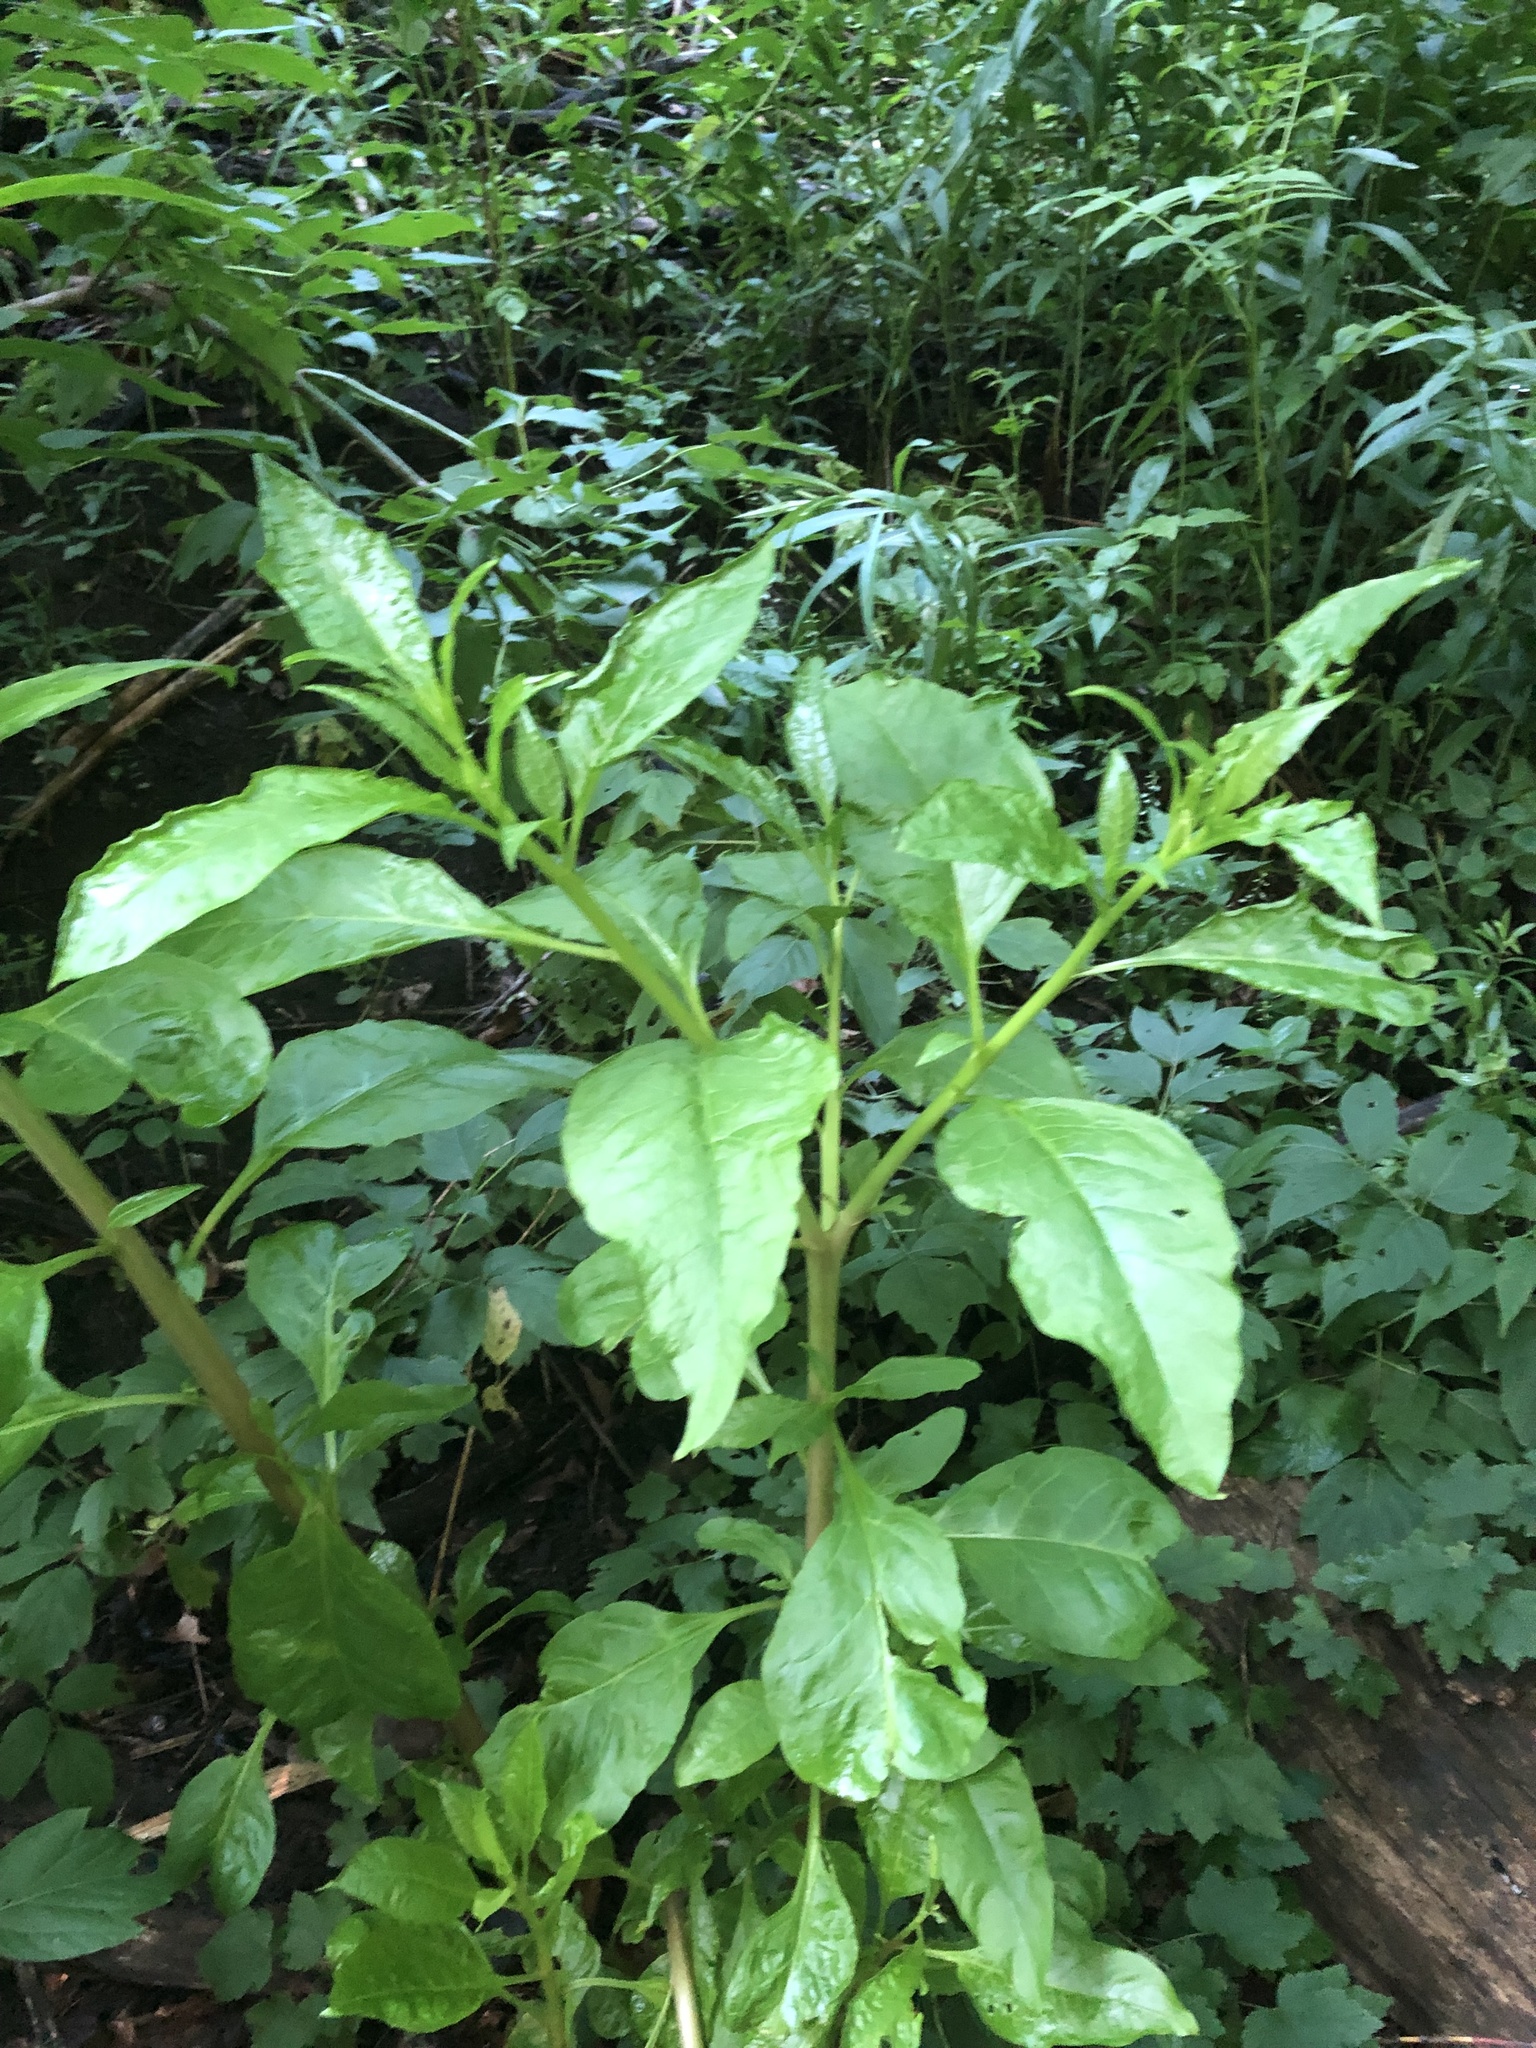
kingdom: Plantae
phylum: Tracheophyta
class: Magnoliopsida
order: Caryophyllales
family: Phytolaccaceae
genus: Phytolacca
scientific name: Phytolacca americana
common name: American pokeweed
